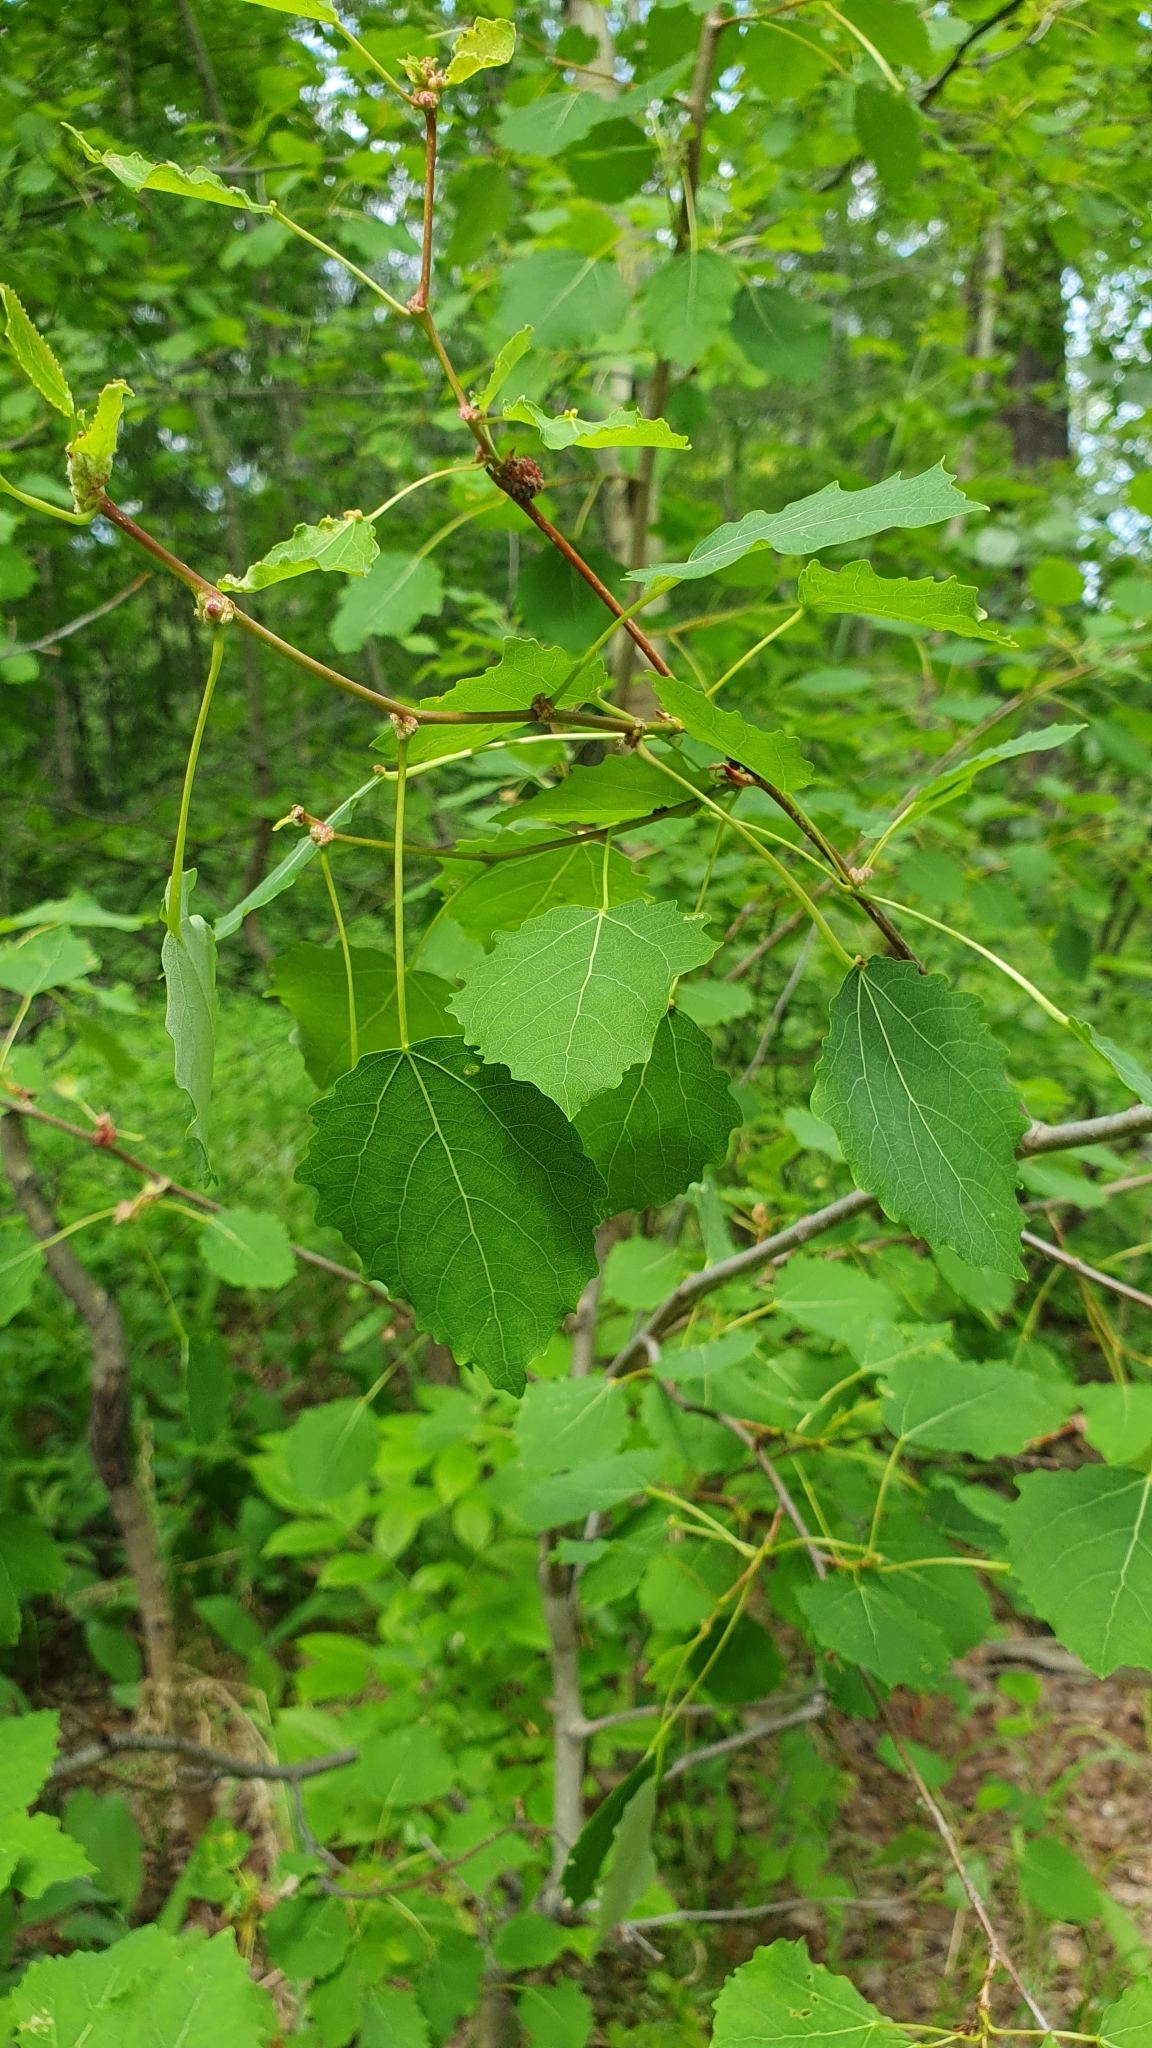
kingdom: Plantae
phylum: Tracheophyta
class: Magnoliopsida
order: Malpighiales
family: Salicaceae
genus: Populus
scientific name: Populus tremula
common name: European aspen
